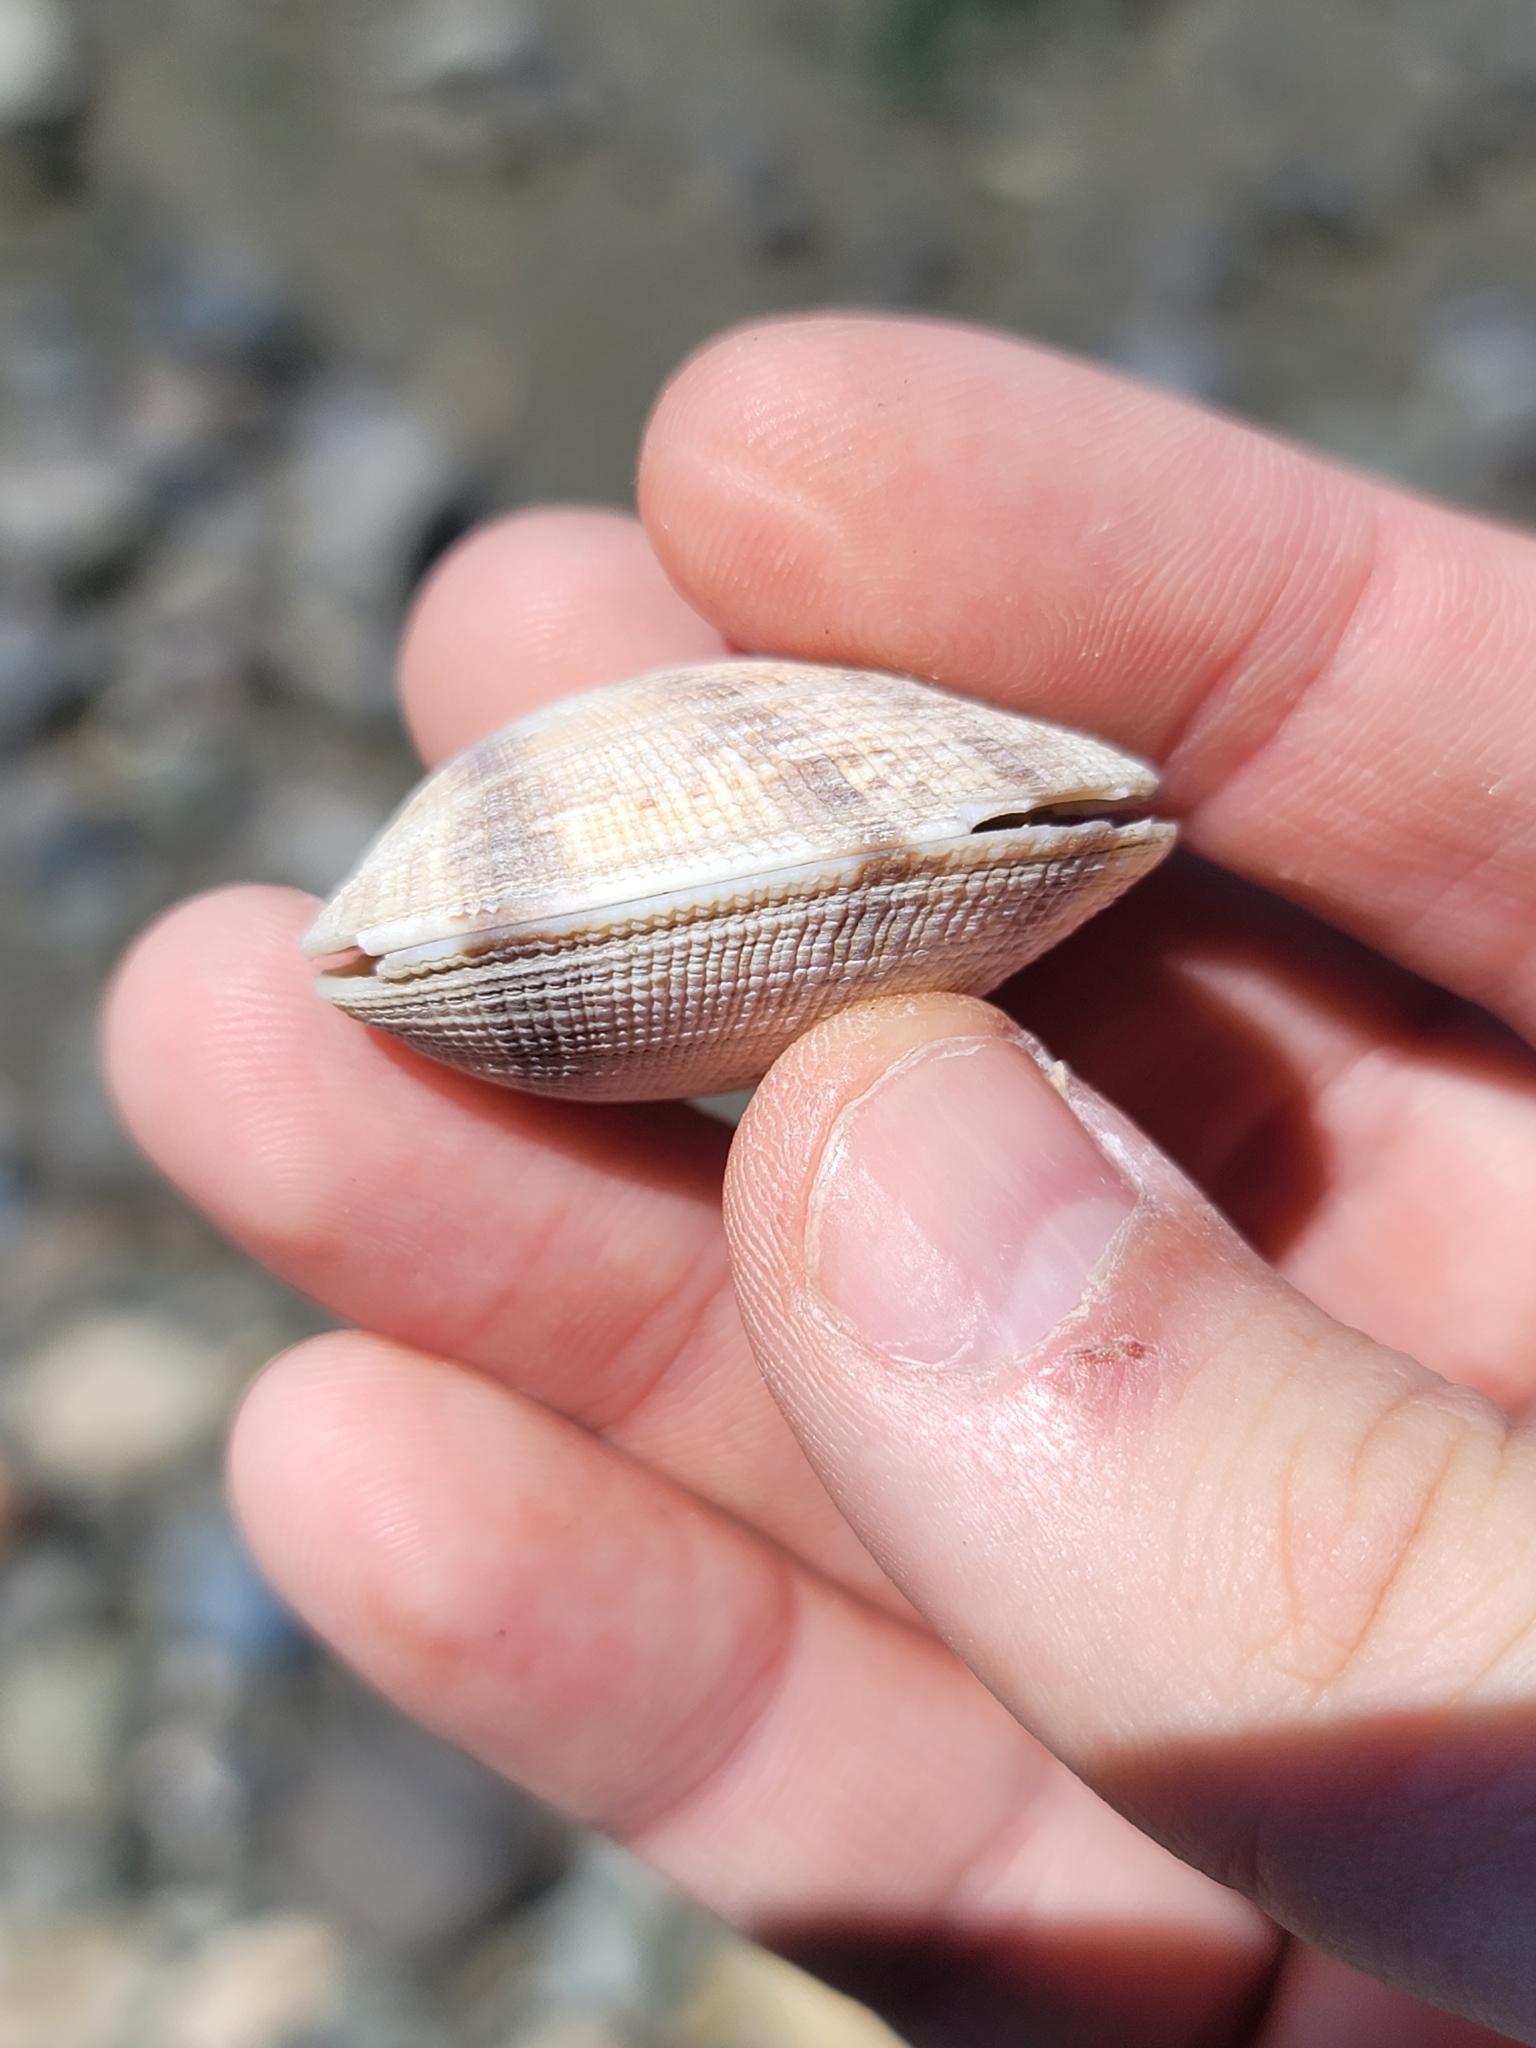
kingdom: Animalia
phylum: Mollusca
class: Bivalvia
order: Venerida
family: Veneridae
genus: Ruditapes
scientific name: Ruditapes philippinarum
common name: Manila clam
